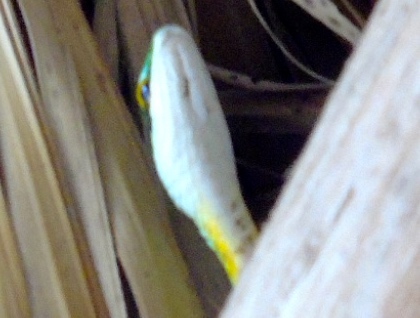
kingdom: Animalia
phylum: Chordata
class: Squamata
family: Colubridae
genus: Leptophis
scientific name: Leptophis diplotropis
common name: Pacific coast parrot snake
